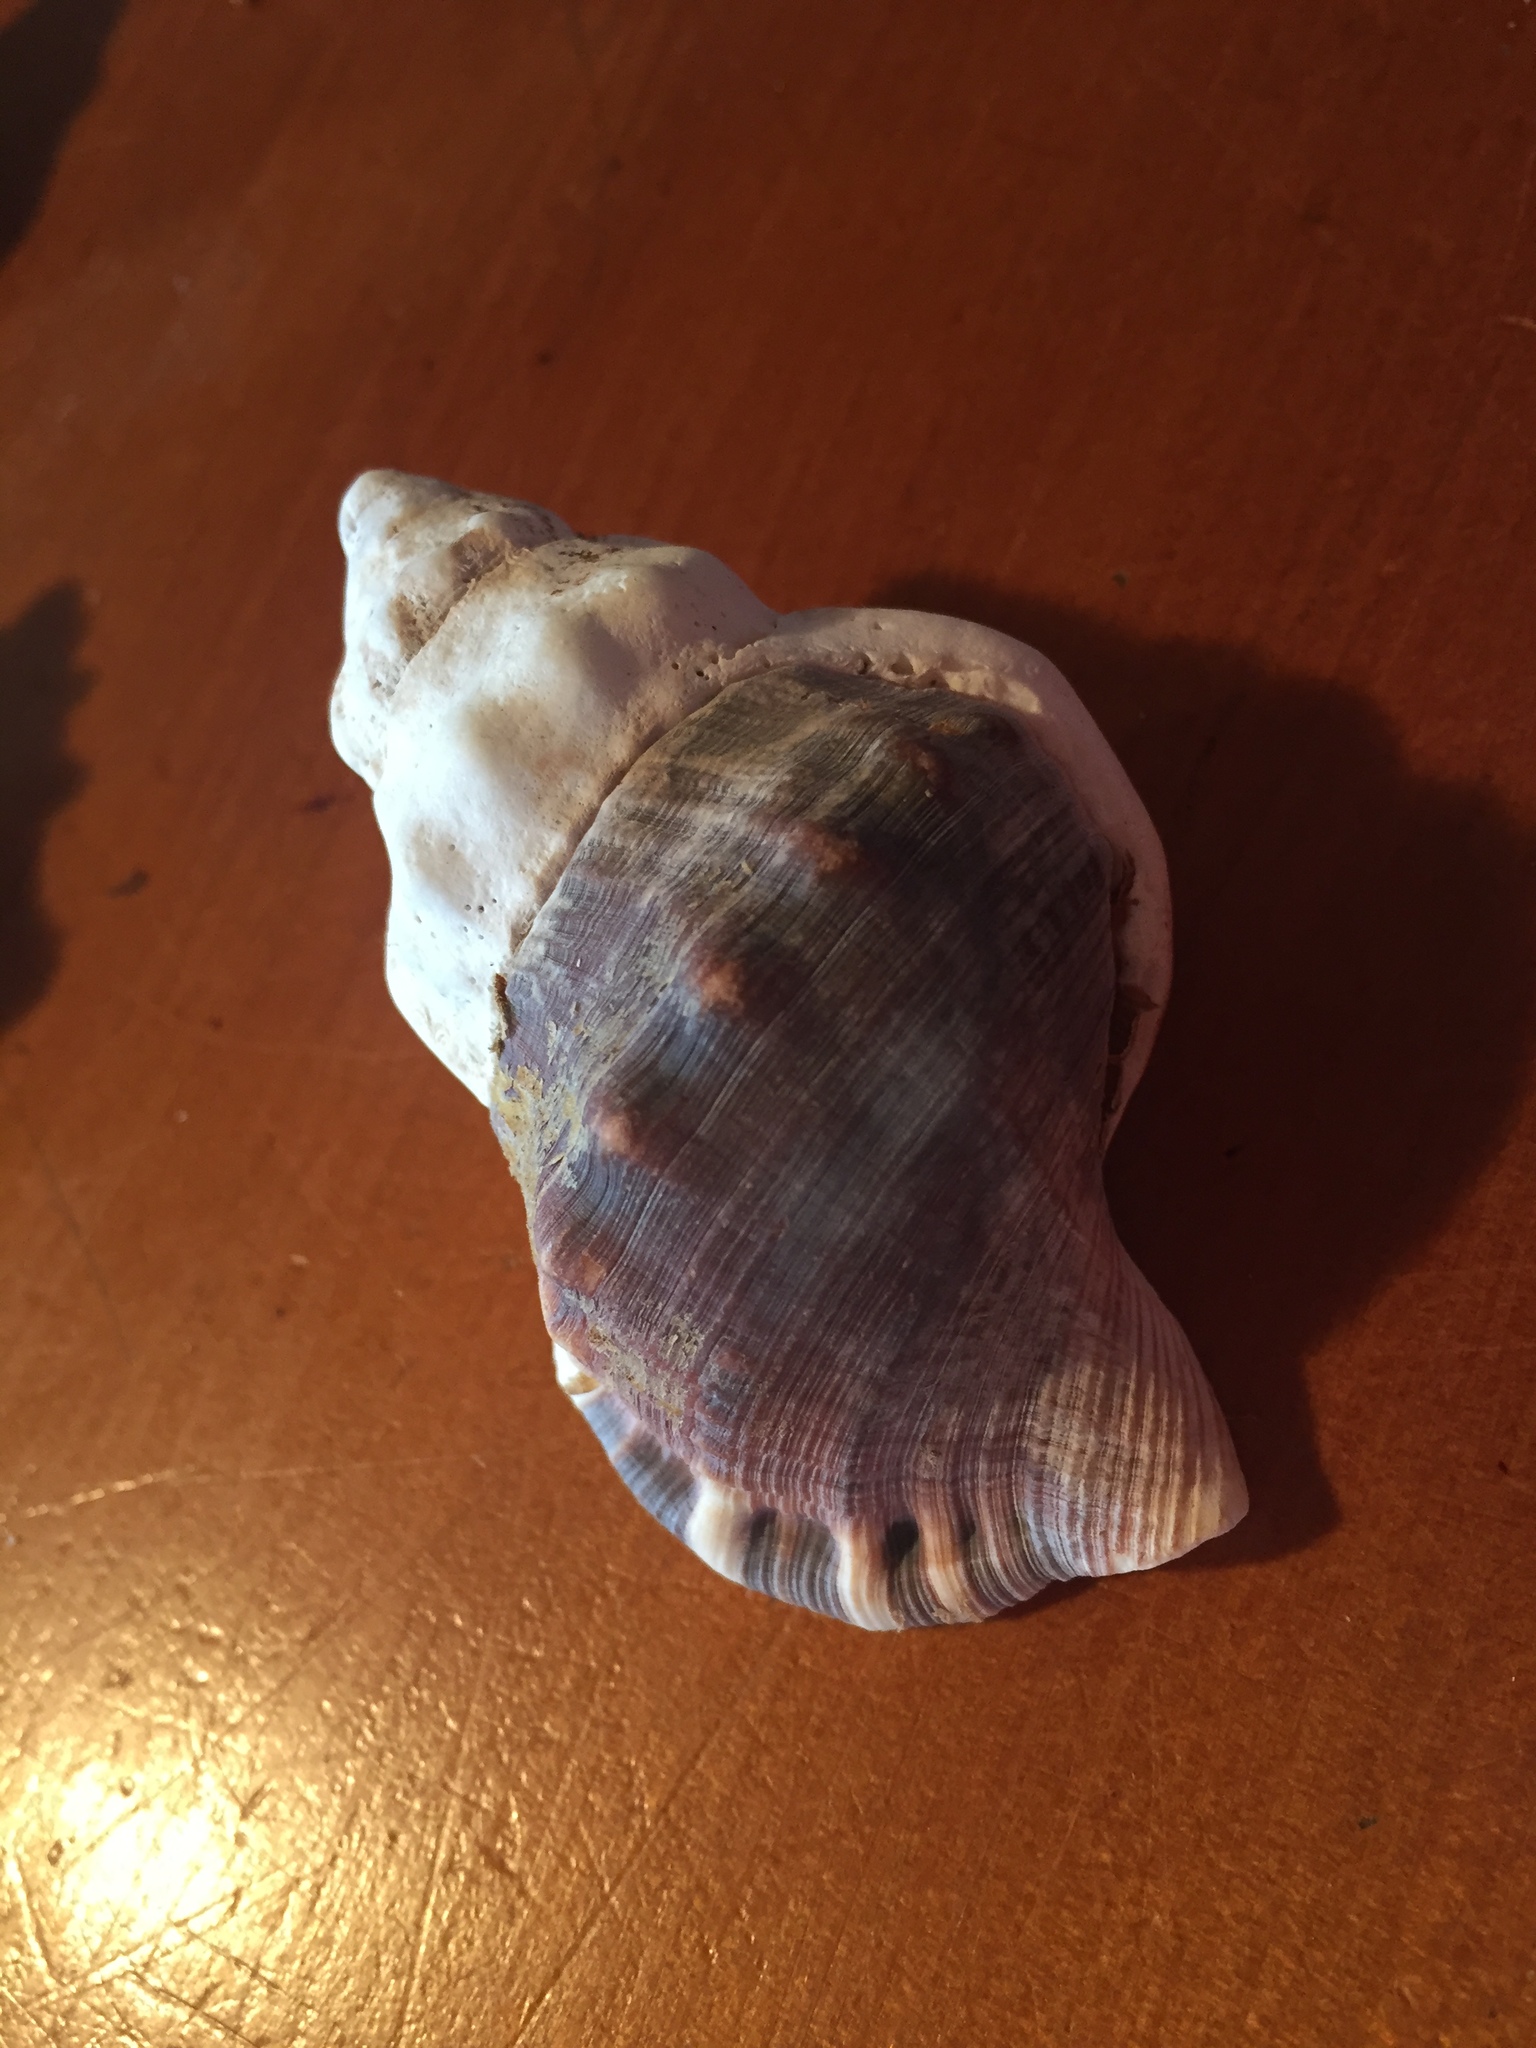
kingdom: Animalia
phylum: Mollusca
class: Gastropoda
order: Littorinimorpha
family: Ranellidae
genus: Ranella
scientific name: Ranella australasia
